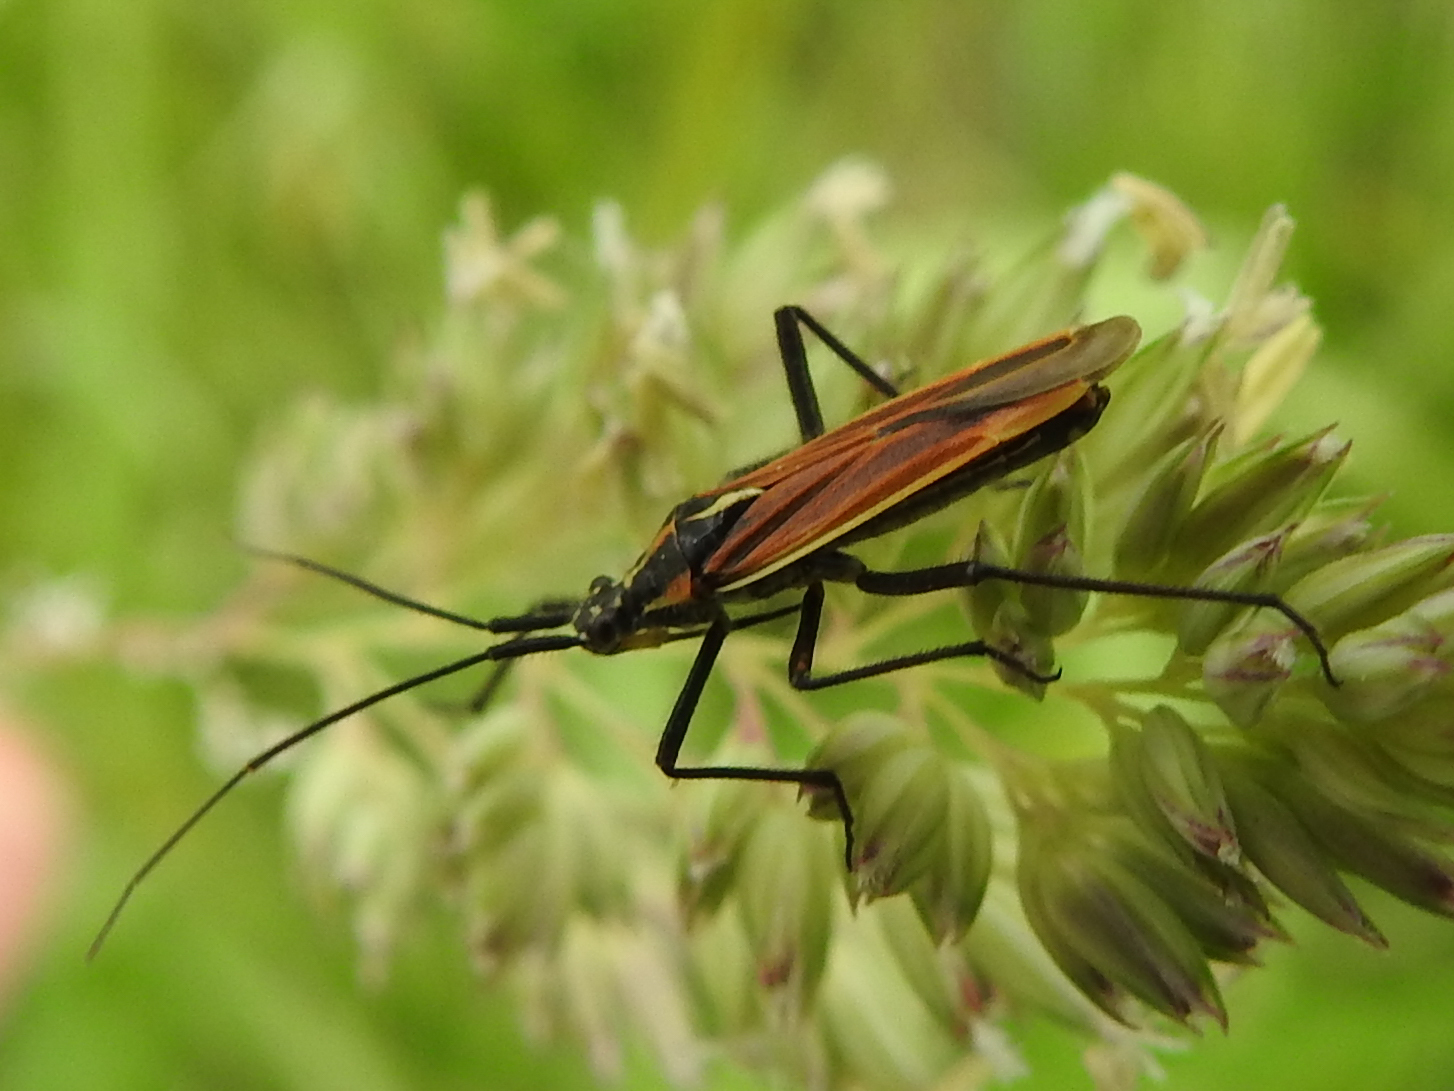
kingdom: Animalia
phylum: Arthropoda
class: Insecta
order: Hemiptera
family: Miridae
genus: Leptopterna
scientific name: Leptopterna dolabrata
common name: Meadow plant bug
